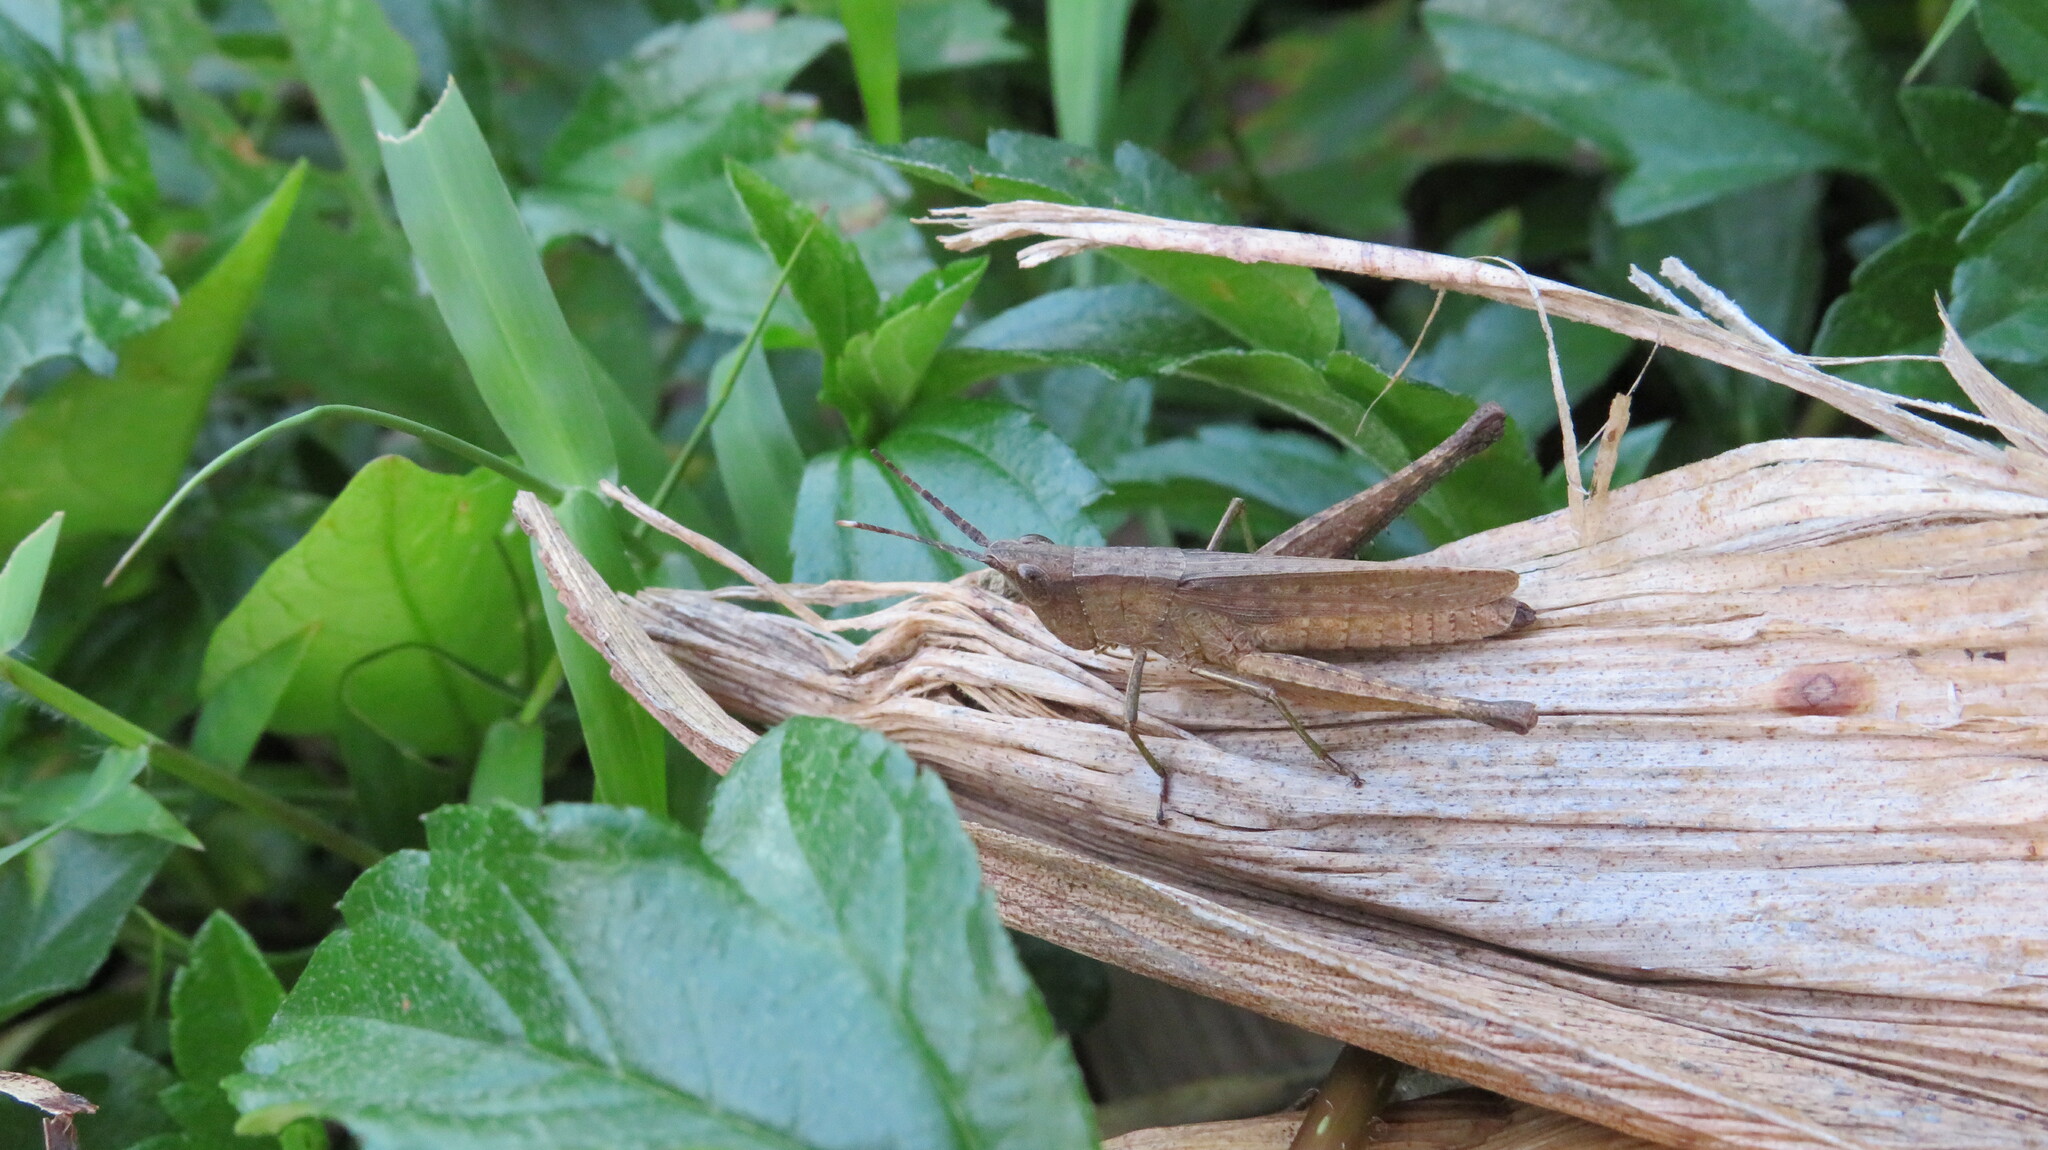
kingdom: Animalia
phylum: Arthropoda
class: Insecta
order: Orthoptera
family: Acrididae
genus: Phlaeoba
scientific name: Phlaeoba antennata
